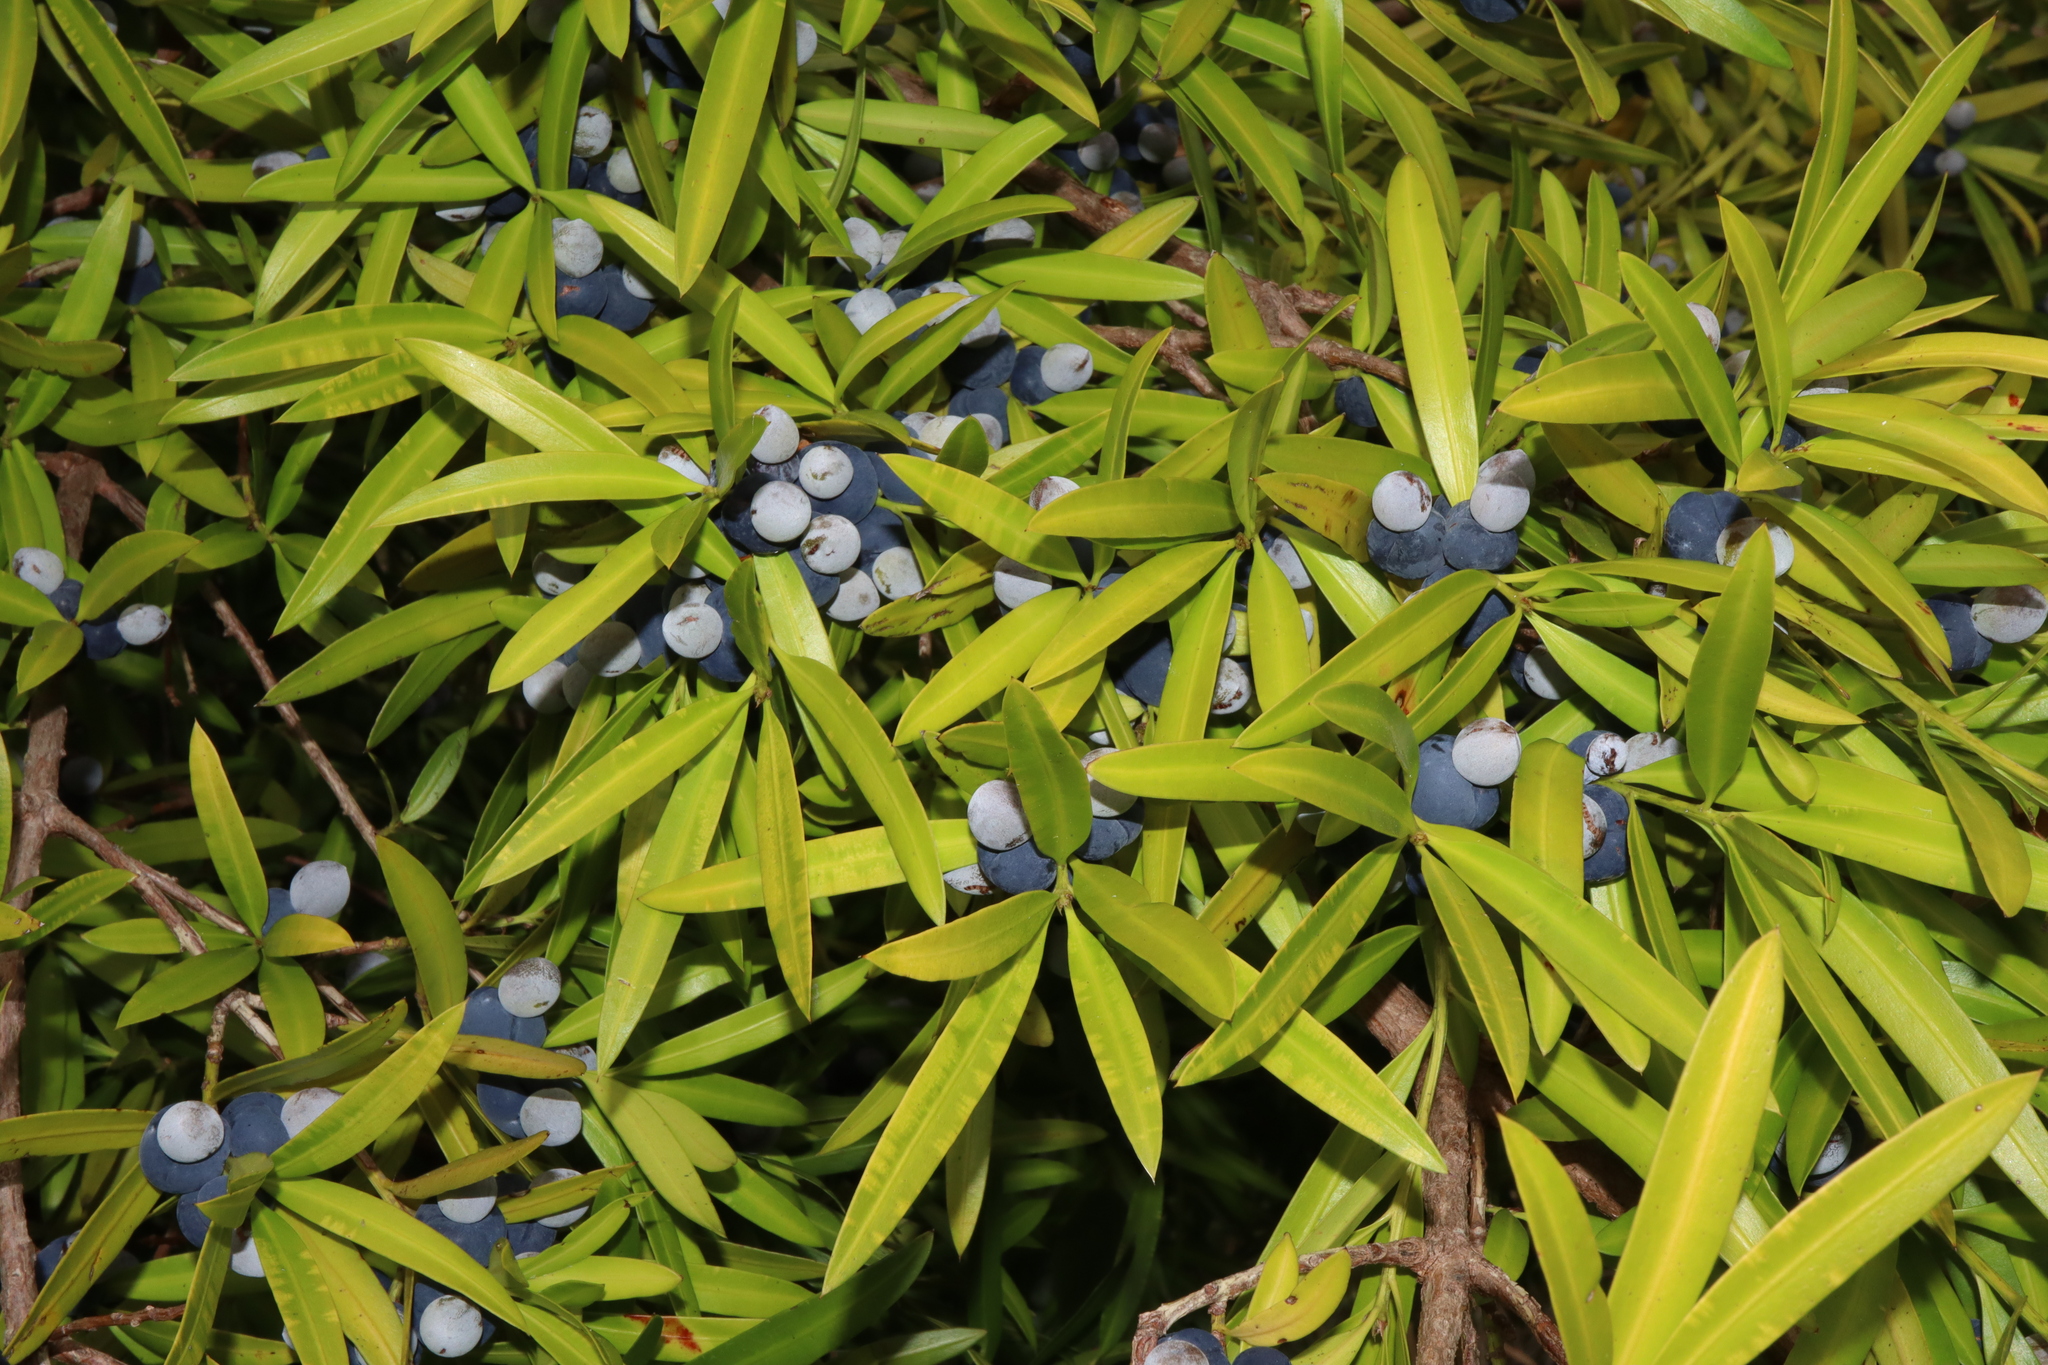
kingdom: Plantae
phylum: Tracheophyta
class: Pinopsida
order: Pinales
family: Podocarpaceae
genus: Podocarpus
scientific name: Podocarpus elatus
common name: Plum pine
